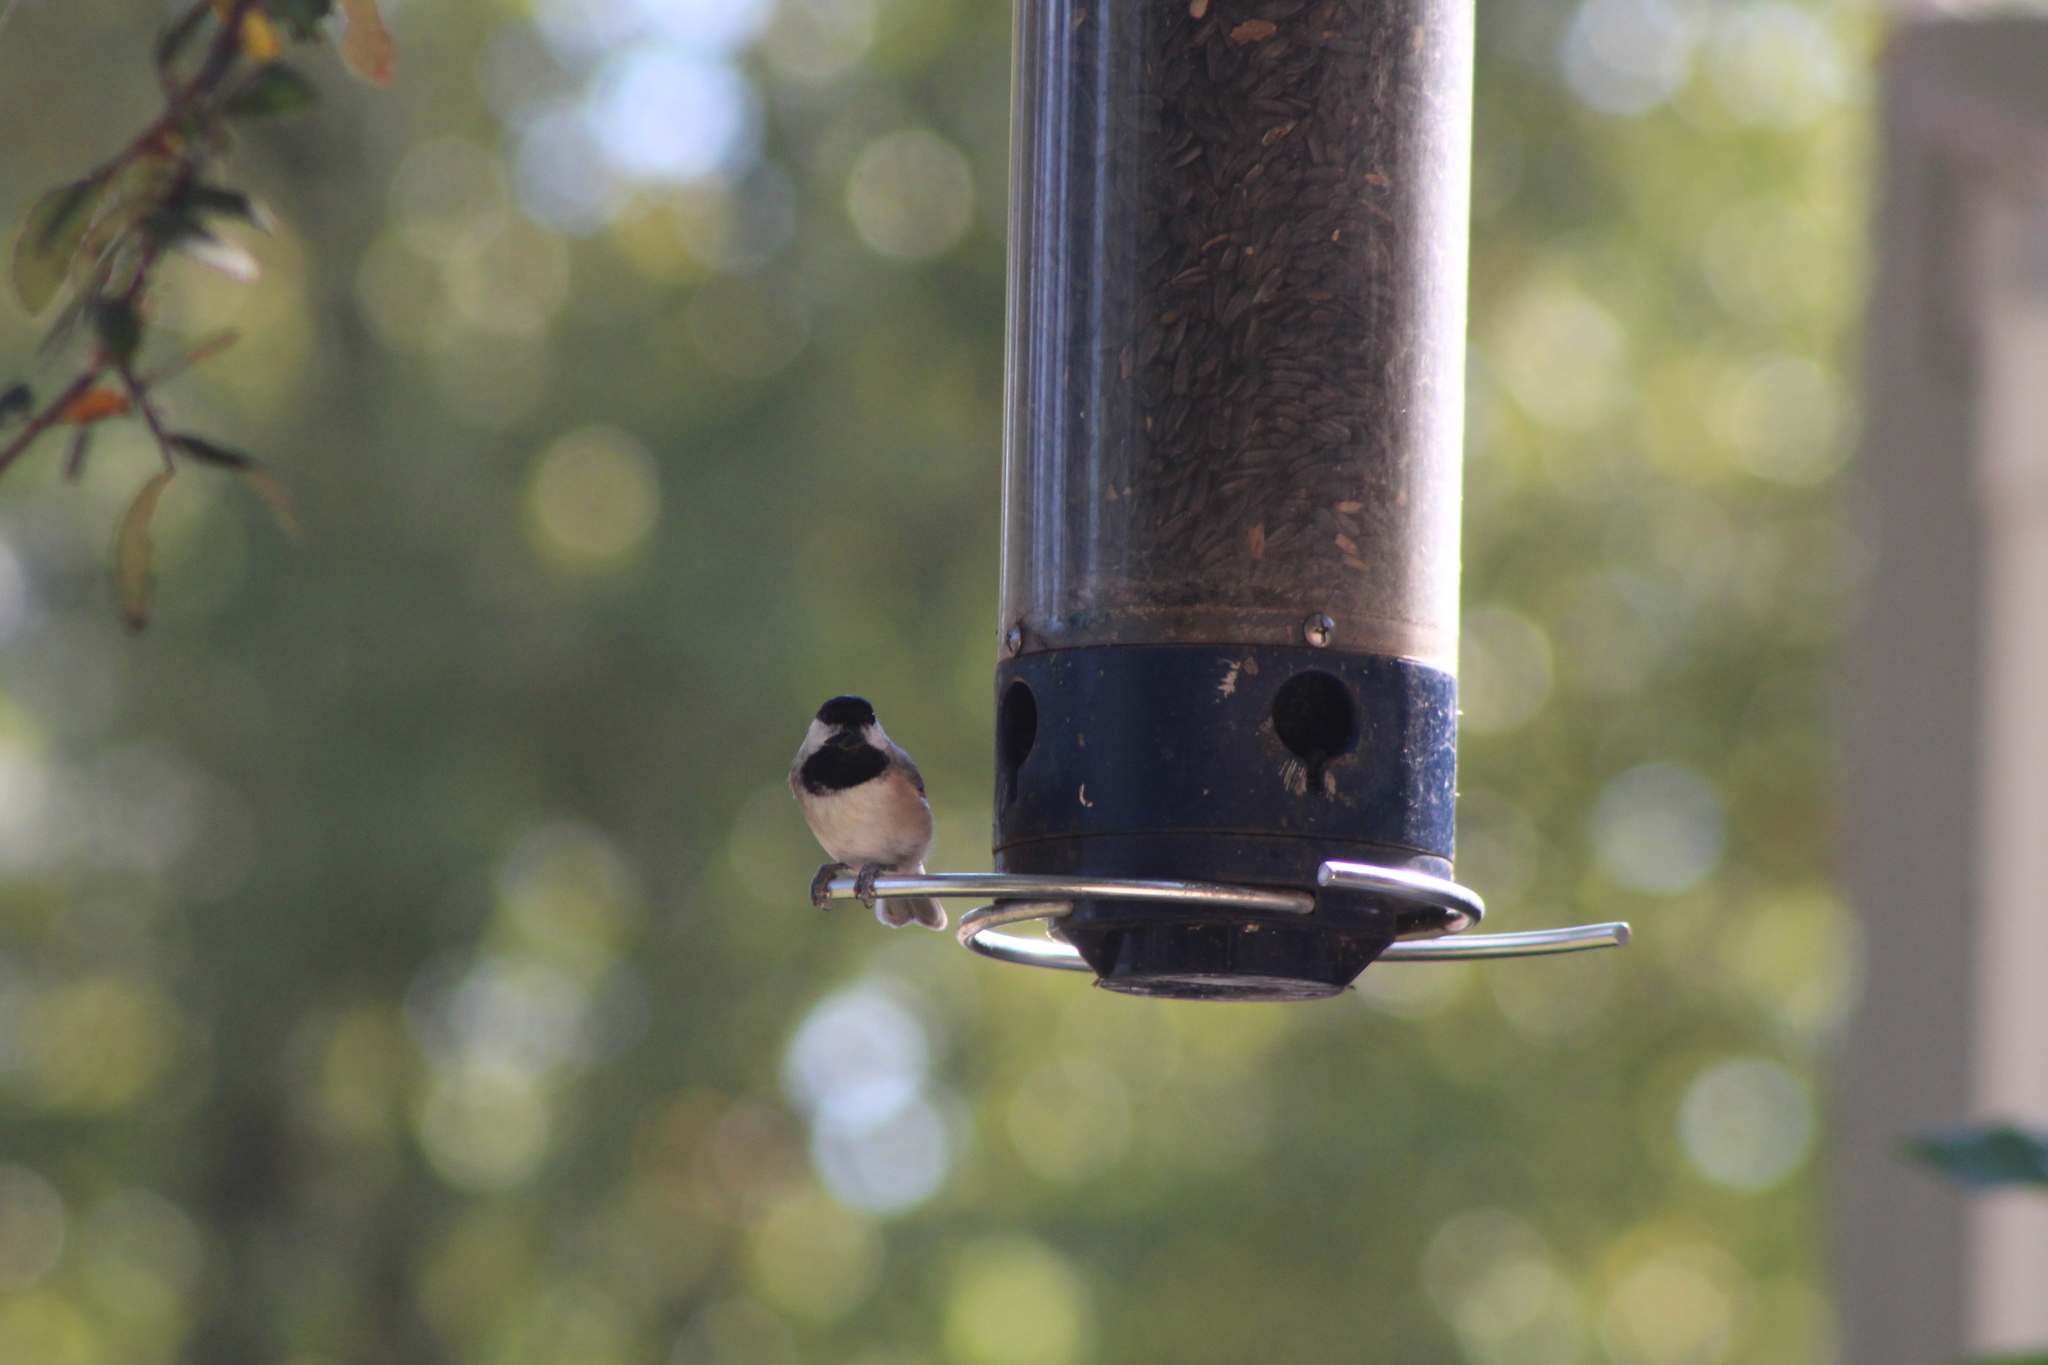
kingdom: Animalia
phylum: Chordata
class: Aves
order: Passeriformes
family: Paridae
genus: Poecile
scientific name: Poecile carolinensis
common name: Carolina chickadee
